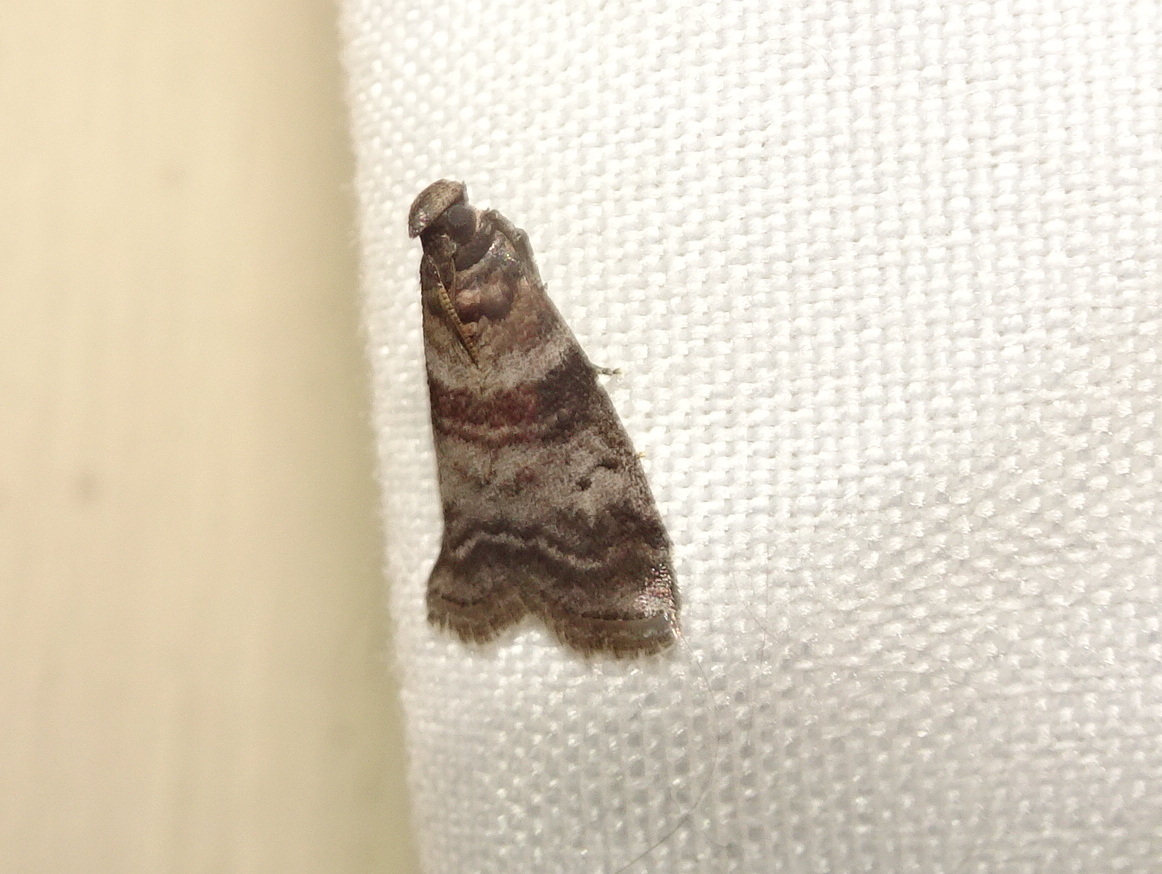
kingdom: Animalia
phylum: Arthropoda
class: Insecta
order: Lepidoptera
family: Pyralidae
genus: Sciota
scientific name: Sciota uvinella
